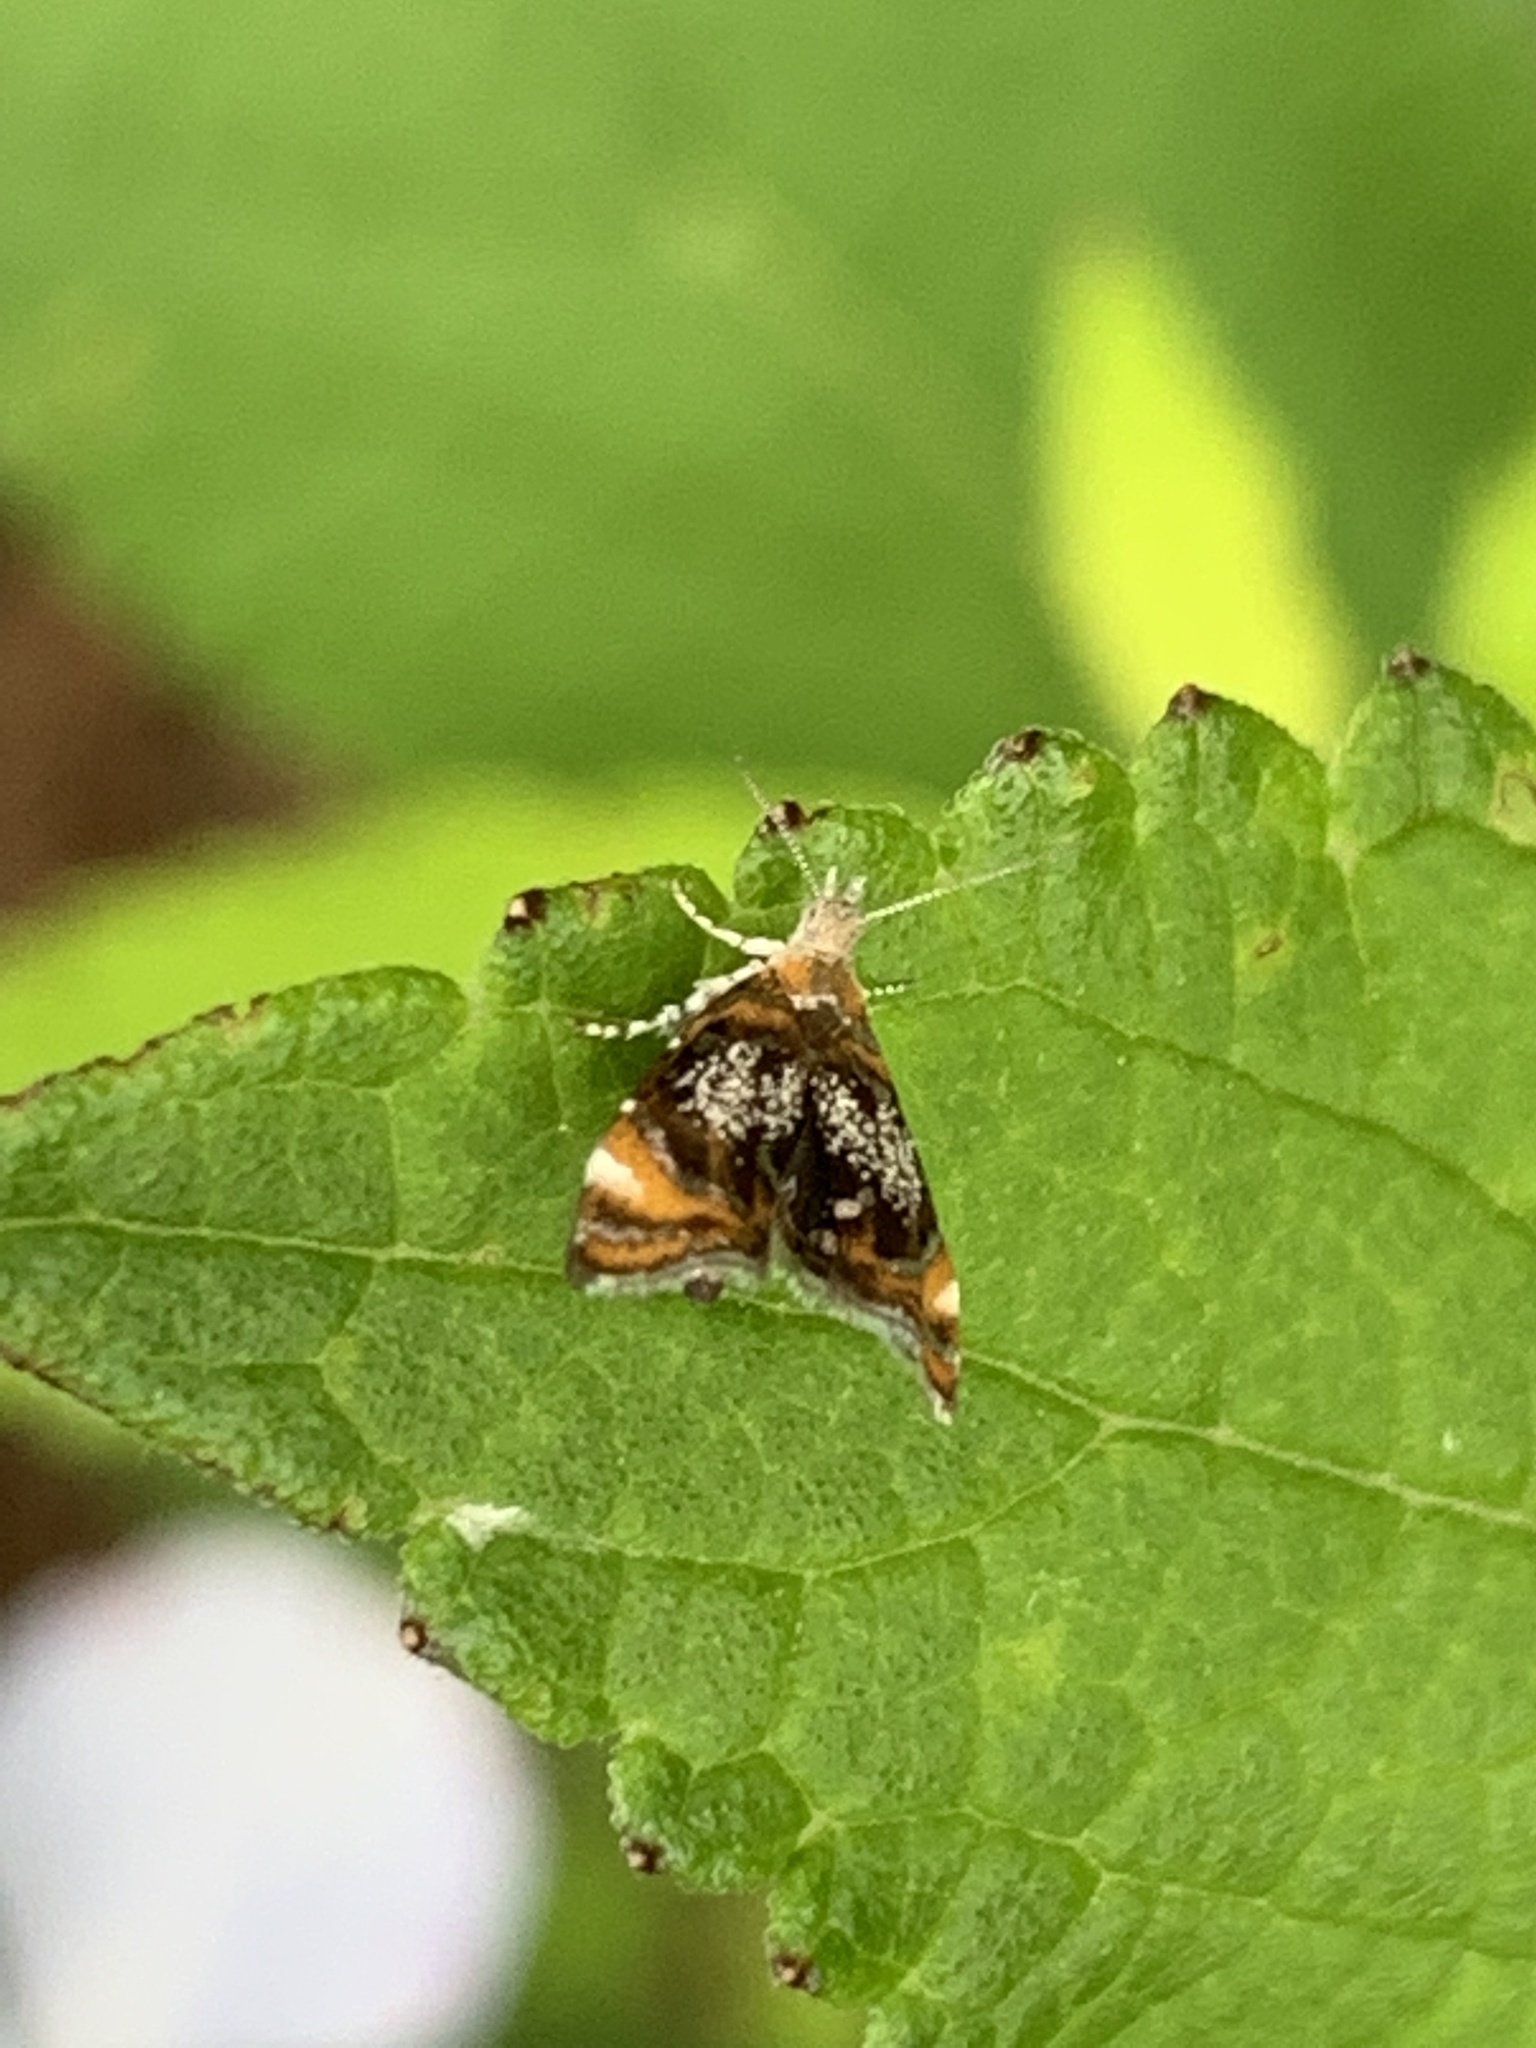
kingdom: Animalia
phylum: Arthropoda
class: Insecta
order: Lepidoptera
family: Choreutidae
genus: Prochoreutis
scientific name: Prochoreutis inflatella
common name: Skullcap skeletonizer moth
